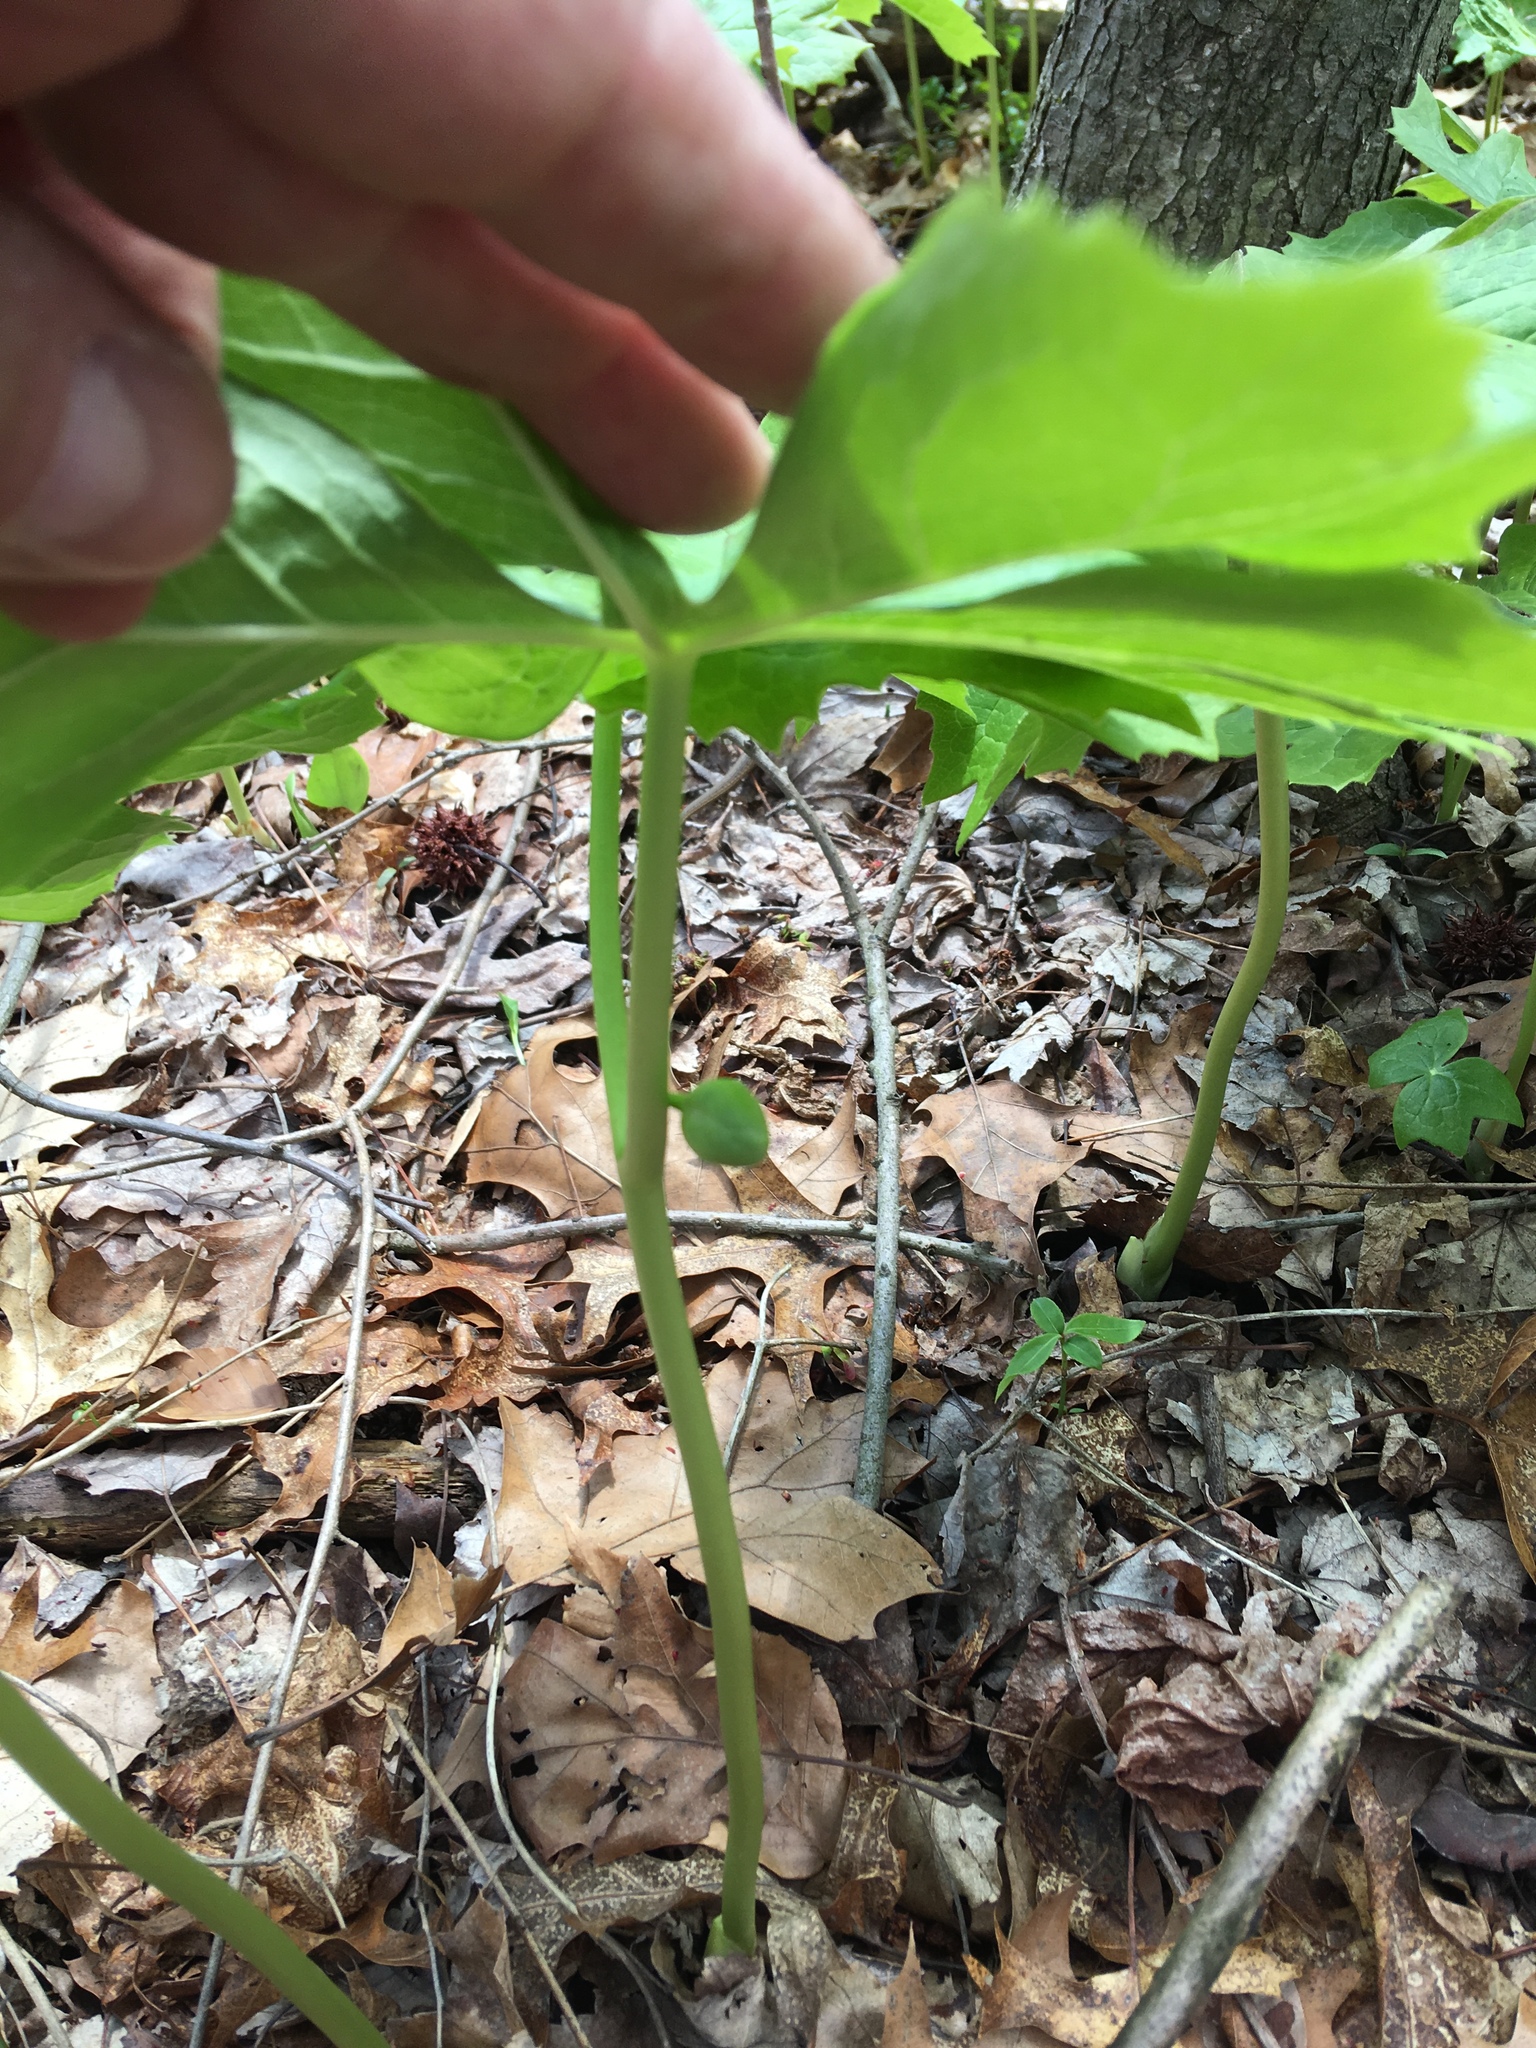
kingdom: Plantae
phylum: Tracheophyta
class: Magnoliopsida
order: Ranunculales
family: Berberidaceae
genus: Podophyllum
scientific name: Podophyllum peltatum
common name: Wild mandrake
